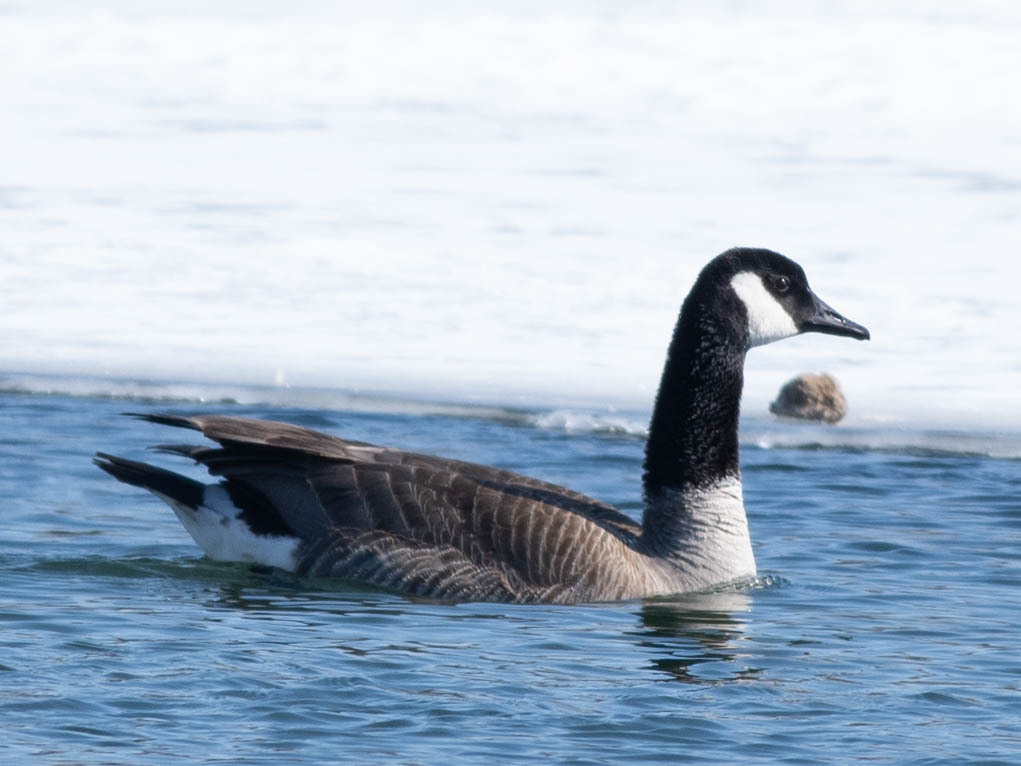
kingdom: Animalia
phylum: Chordata
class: Aves
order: Anseriformes
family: Anatidae
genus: Branta
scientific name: Branta canadensis
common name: Canada goose
